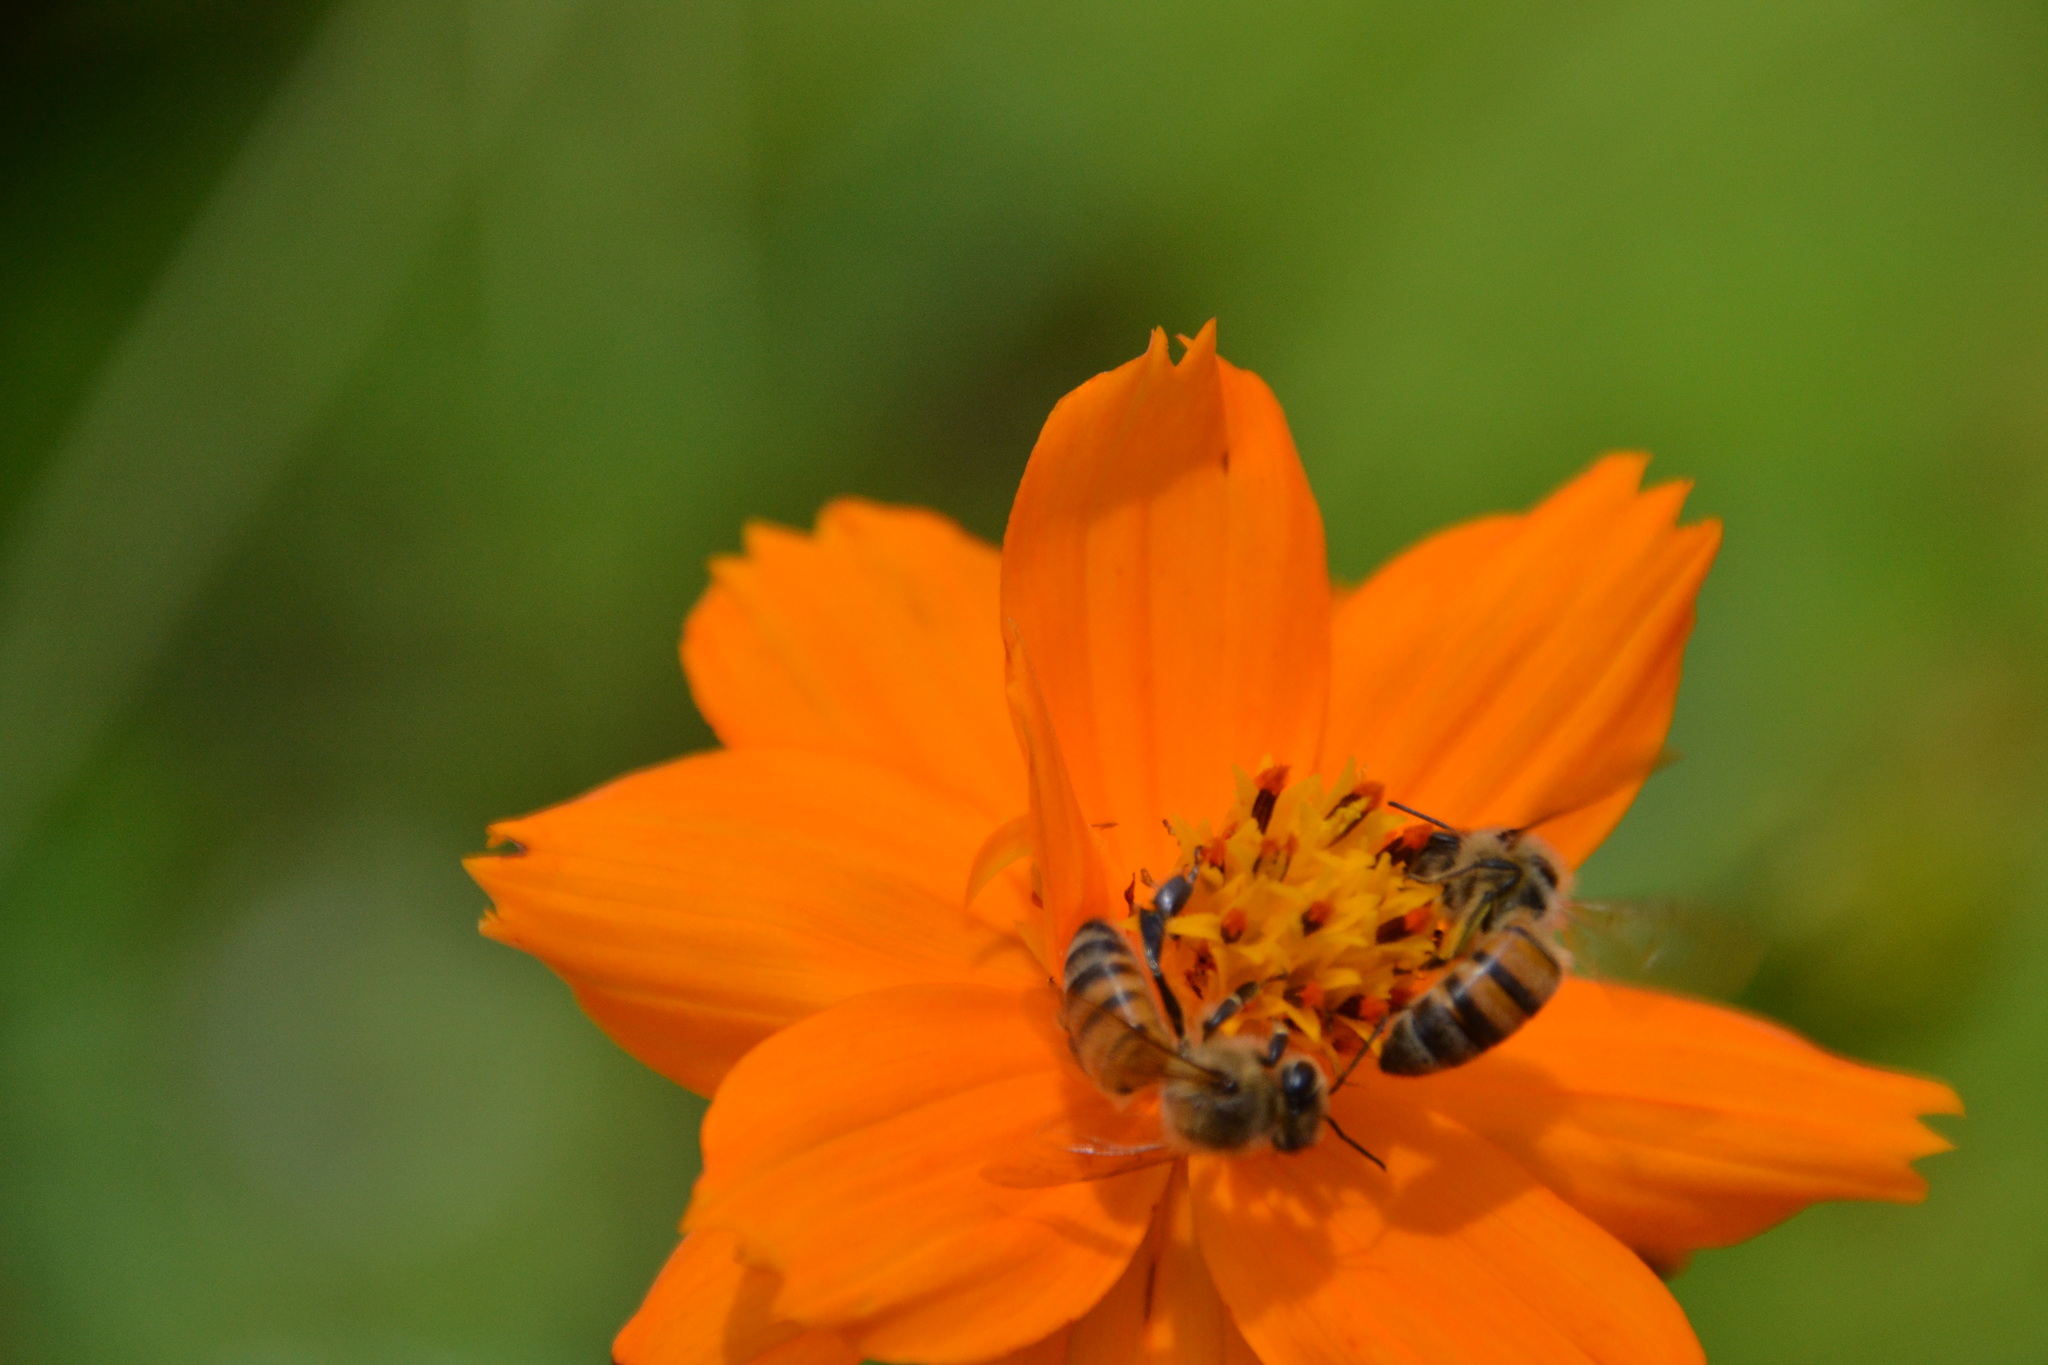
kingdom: Animalia
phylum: Arthropoda
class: Insecta
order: Hymenoptera
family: Apidae
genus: Apis
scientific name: Apis mellifera
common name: Honey bee
